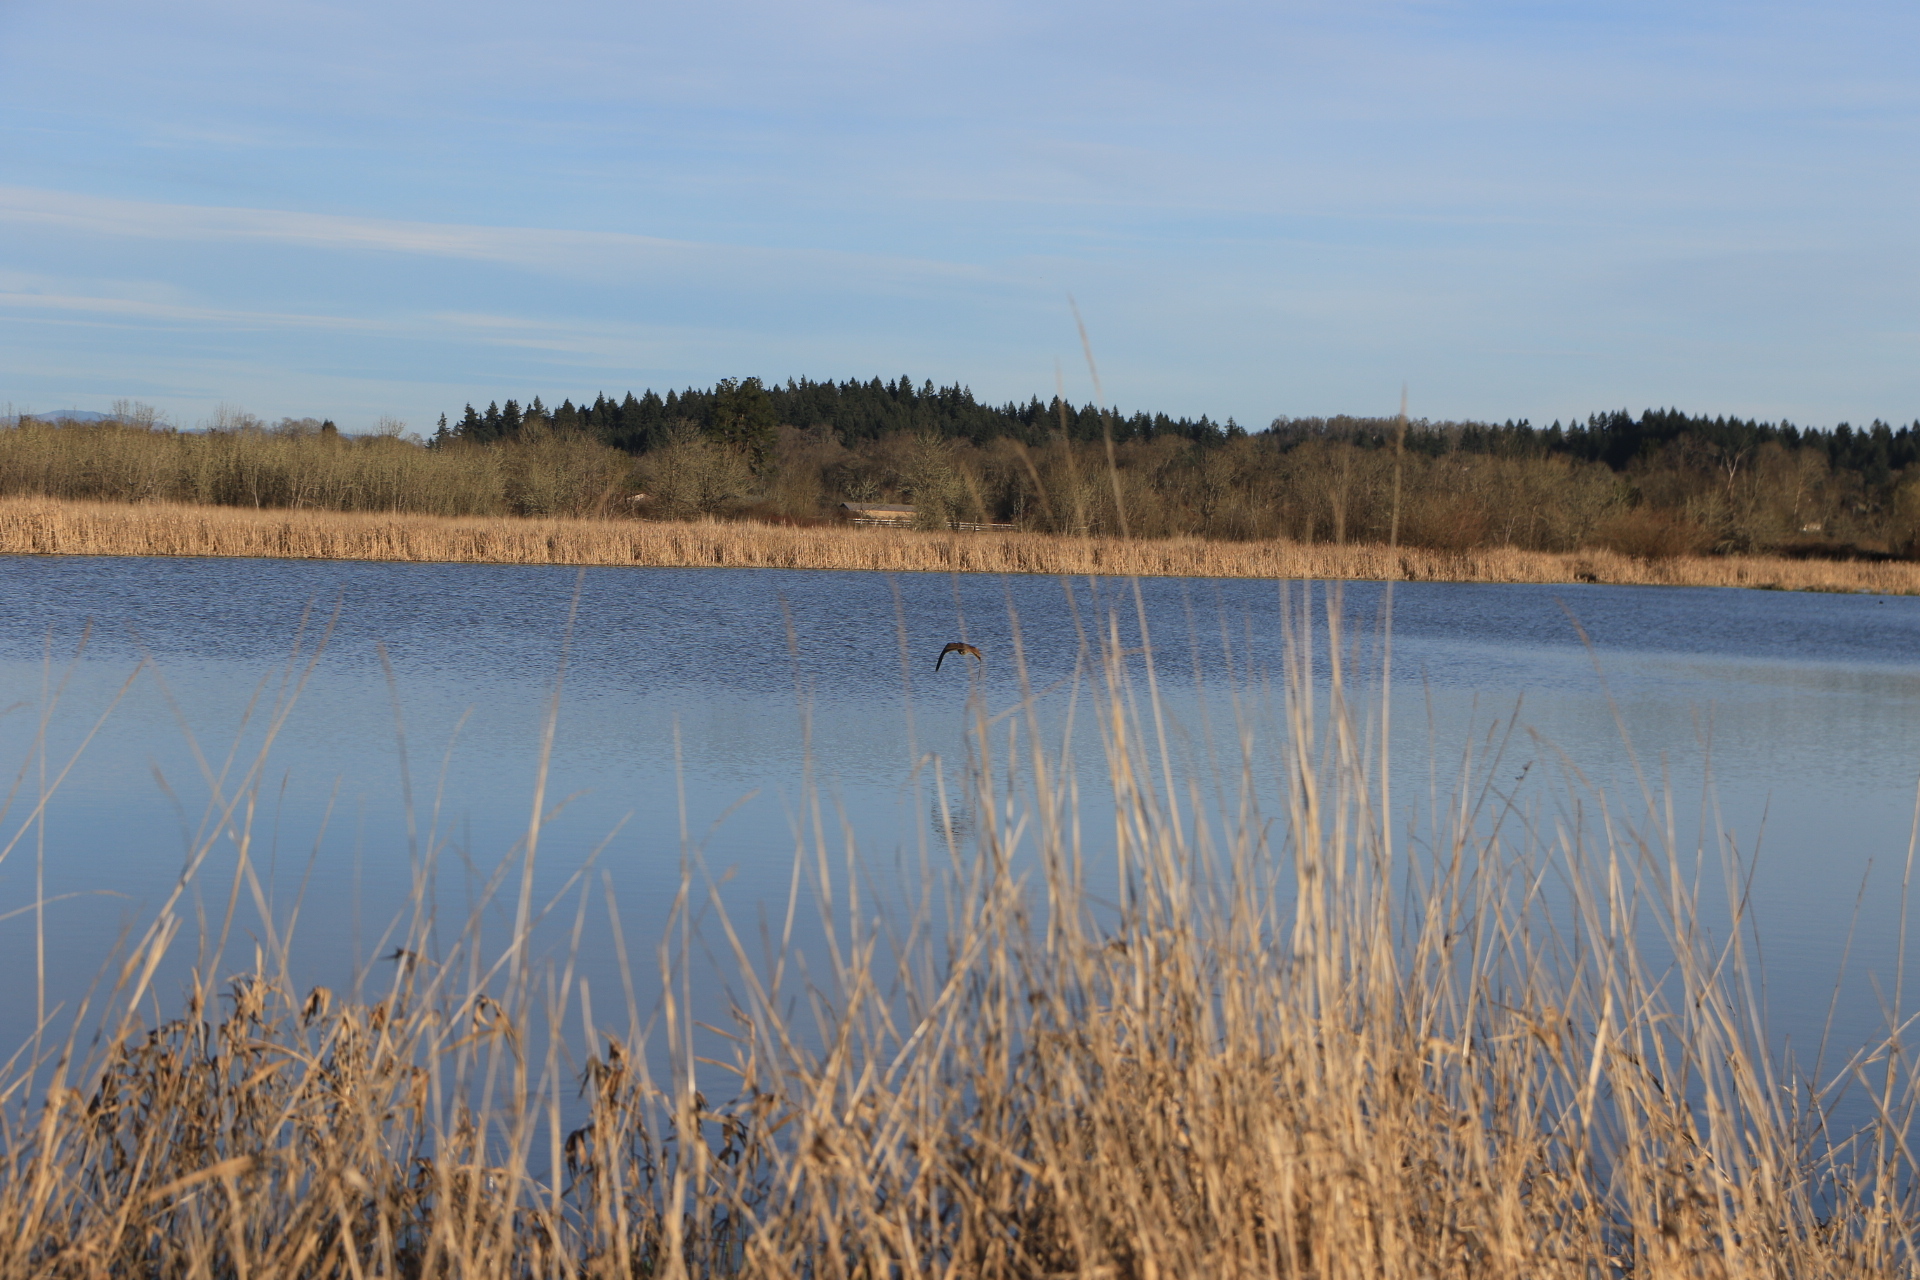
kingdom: Animalia
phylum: Chordata
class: Aves
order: Pelecaniformes
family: Ardeidae
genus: Botaurus
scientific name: Botaurus lentiginosus
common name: American bittern
